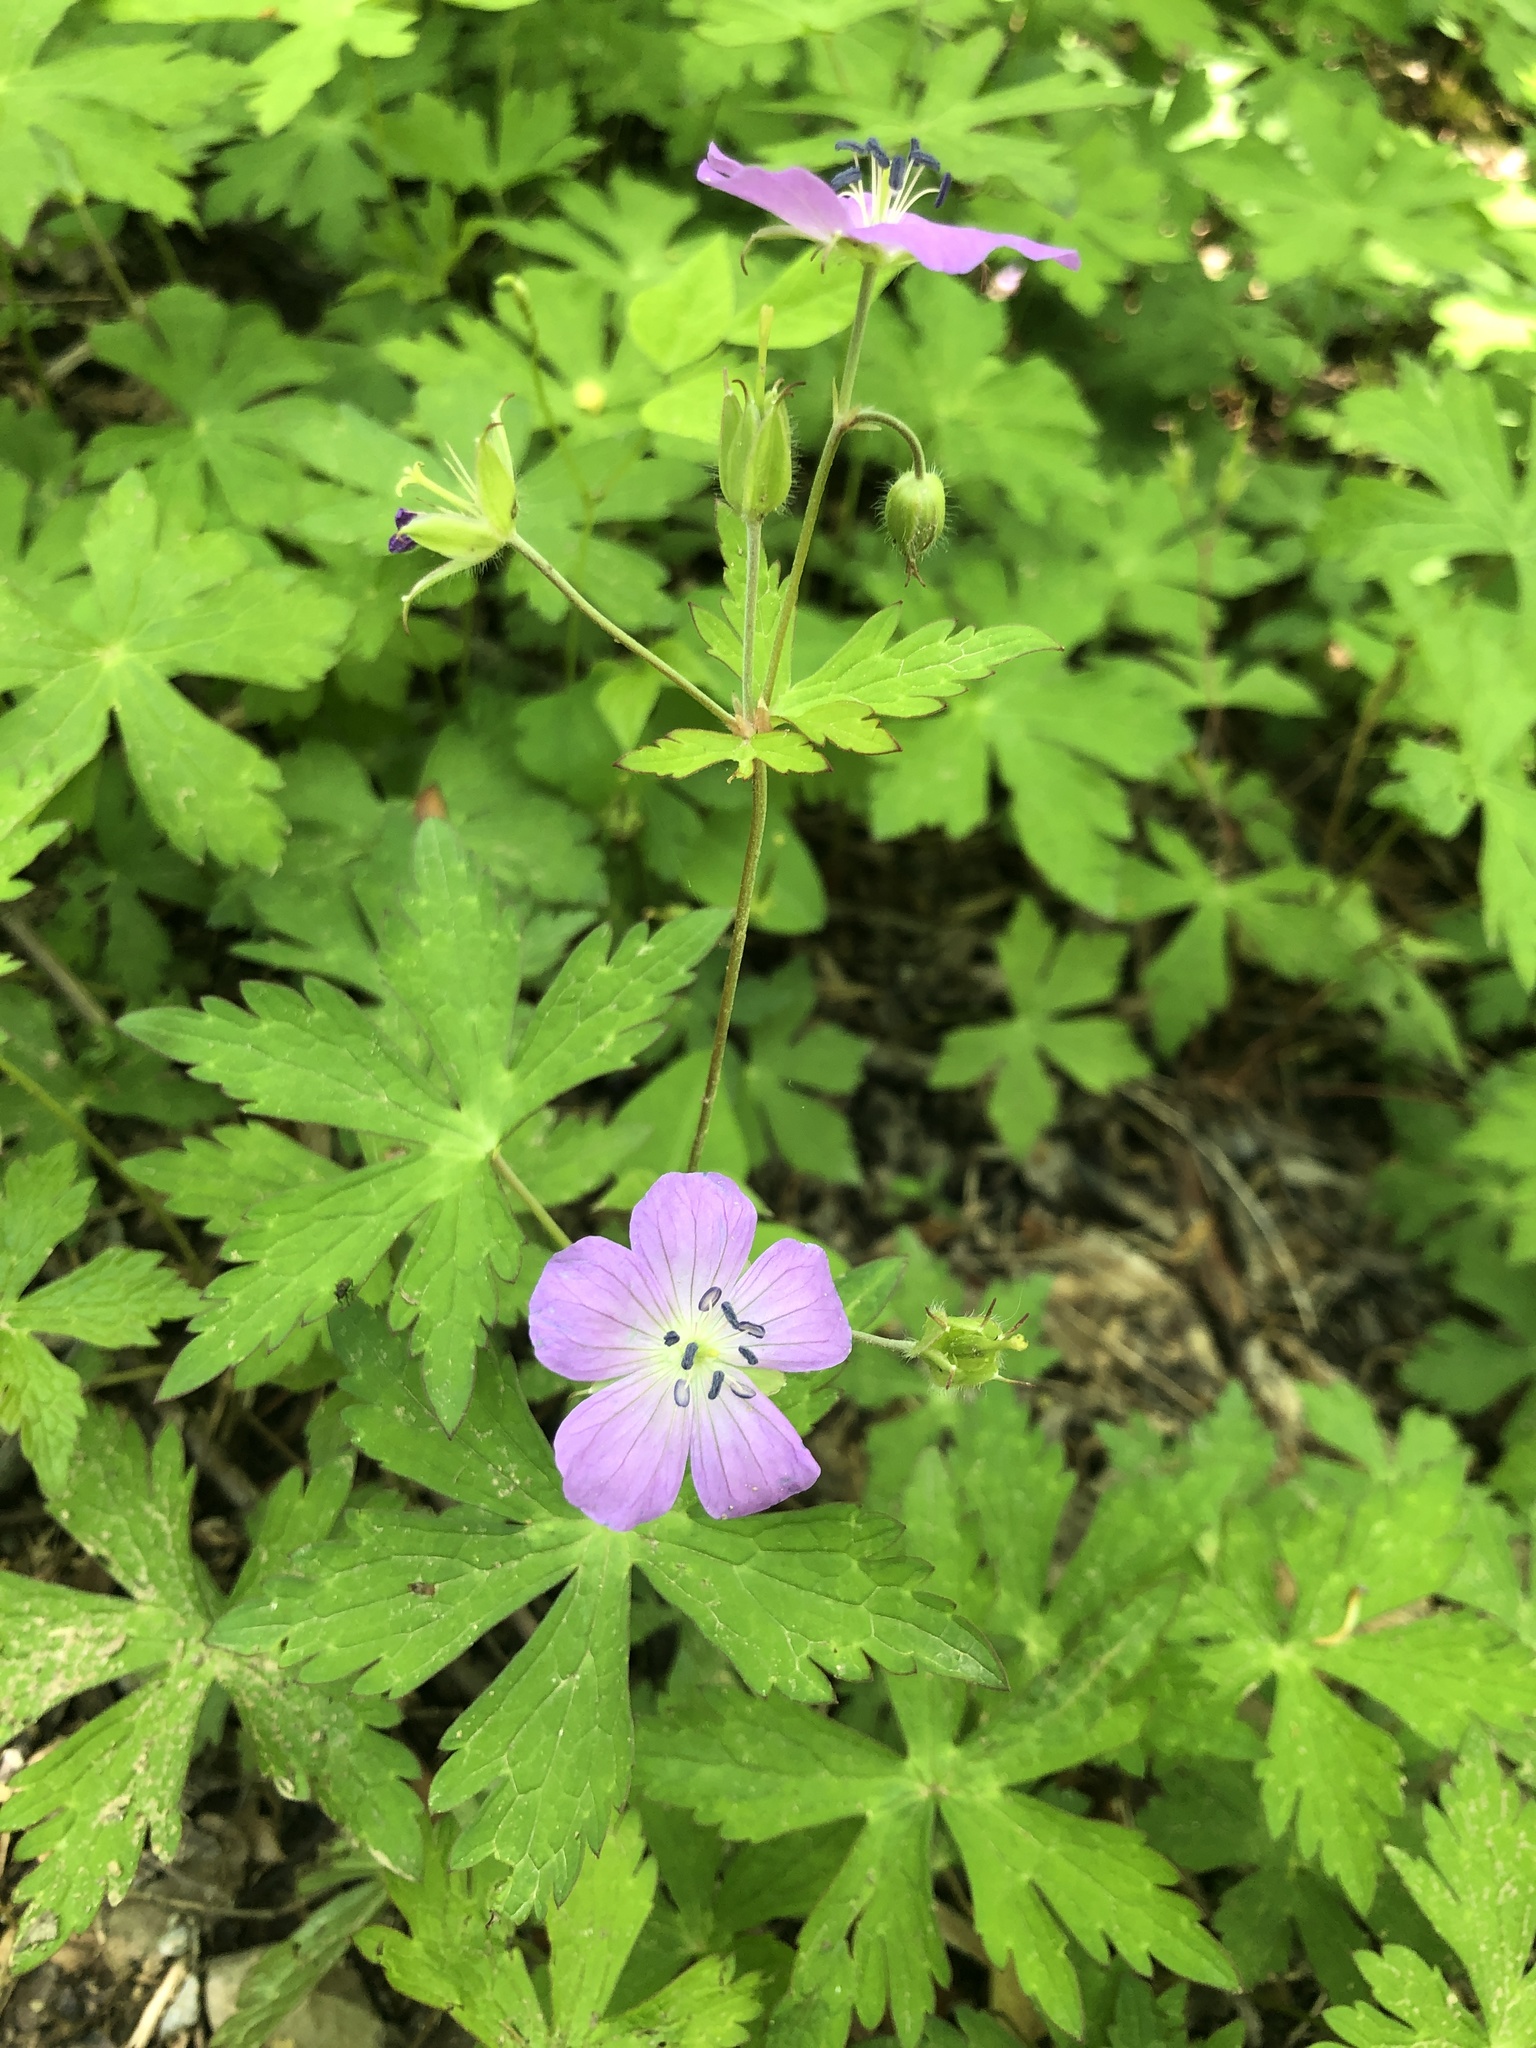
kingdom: Plantae
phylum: Tracheophyta
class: Magnoliopsida
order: Geraniales
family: Geraniaceae
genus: Geranium
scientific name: Geranium maculatum
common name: Spotted geranium
